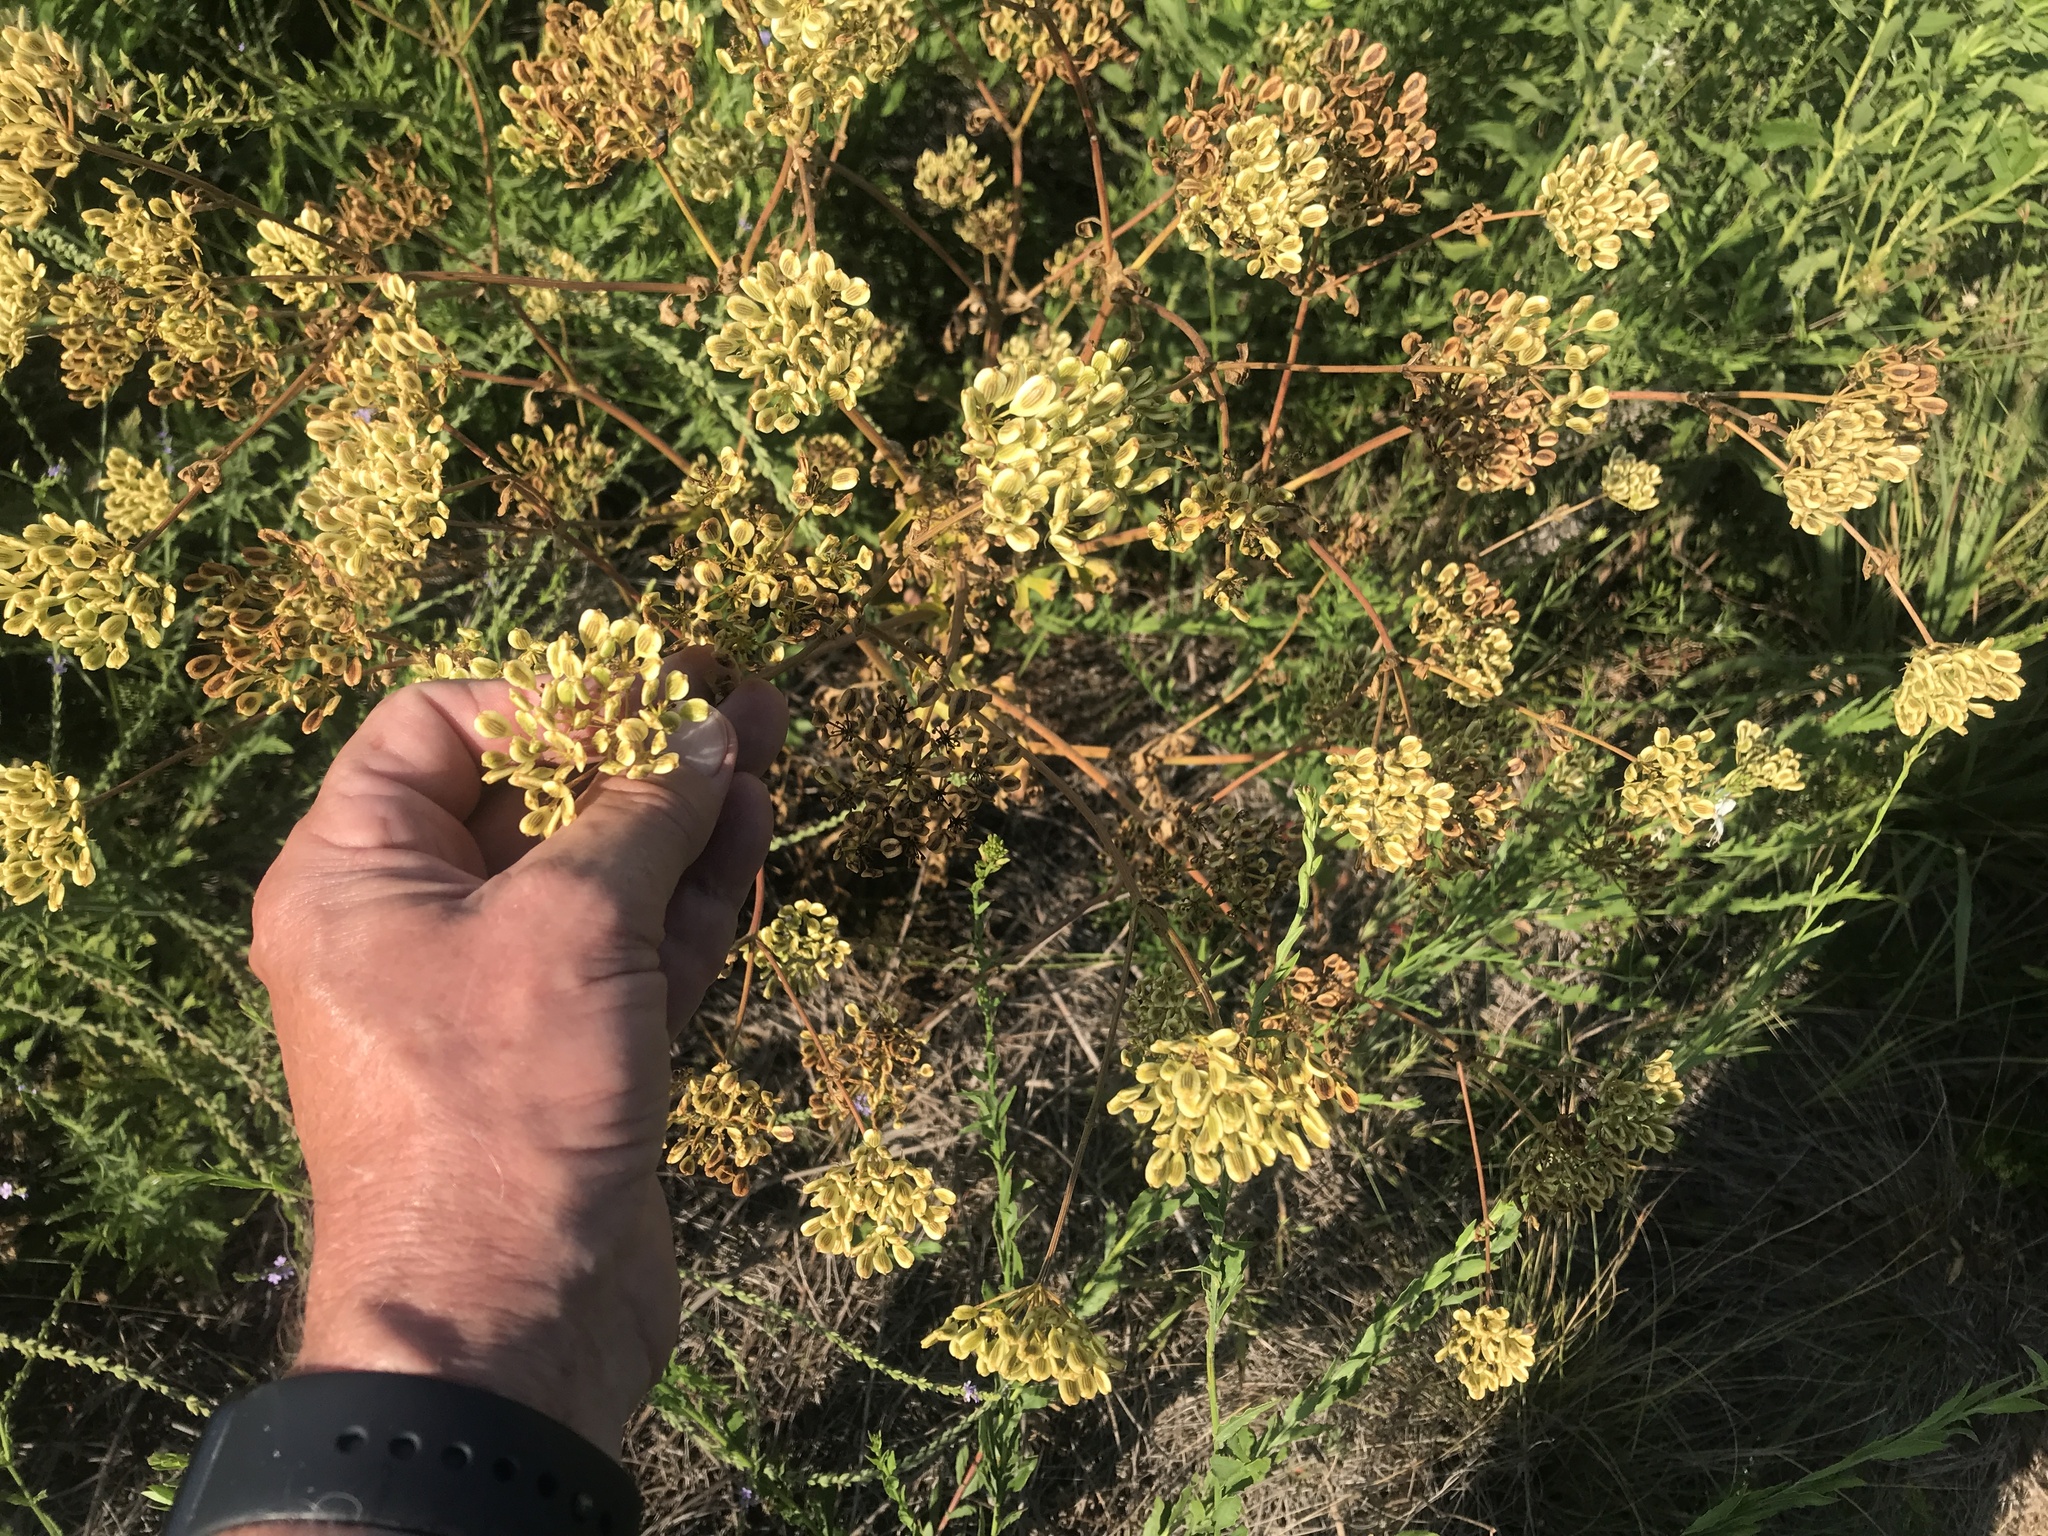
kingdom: Plantae
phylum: Tracheophyta
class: Magnoliopsida
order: Apiales
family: Apiaceae
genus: Polytaenia
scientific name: Polytaenia texana
